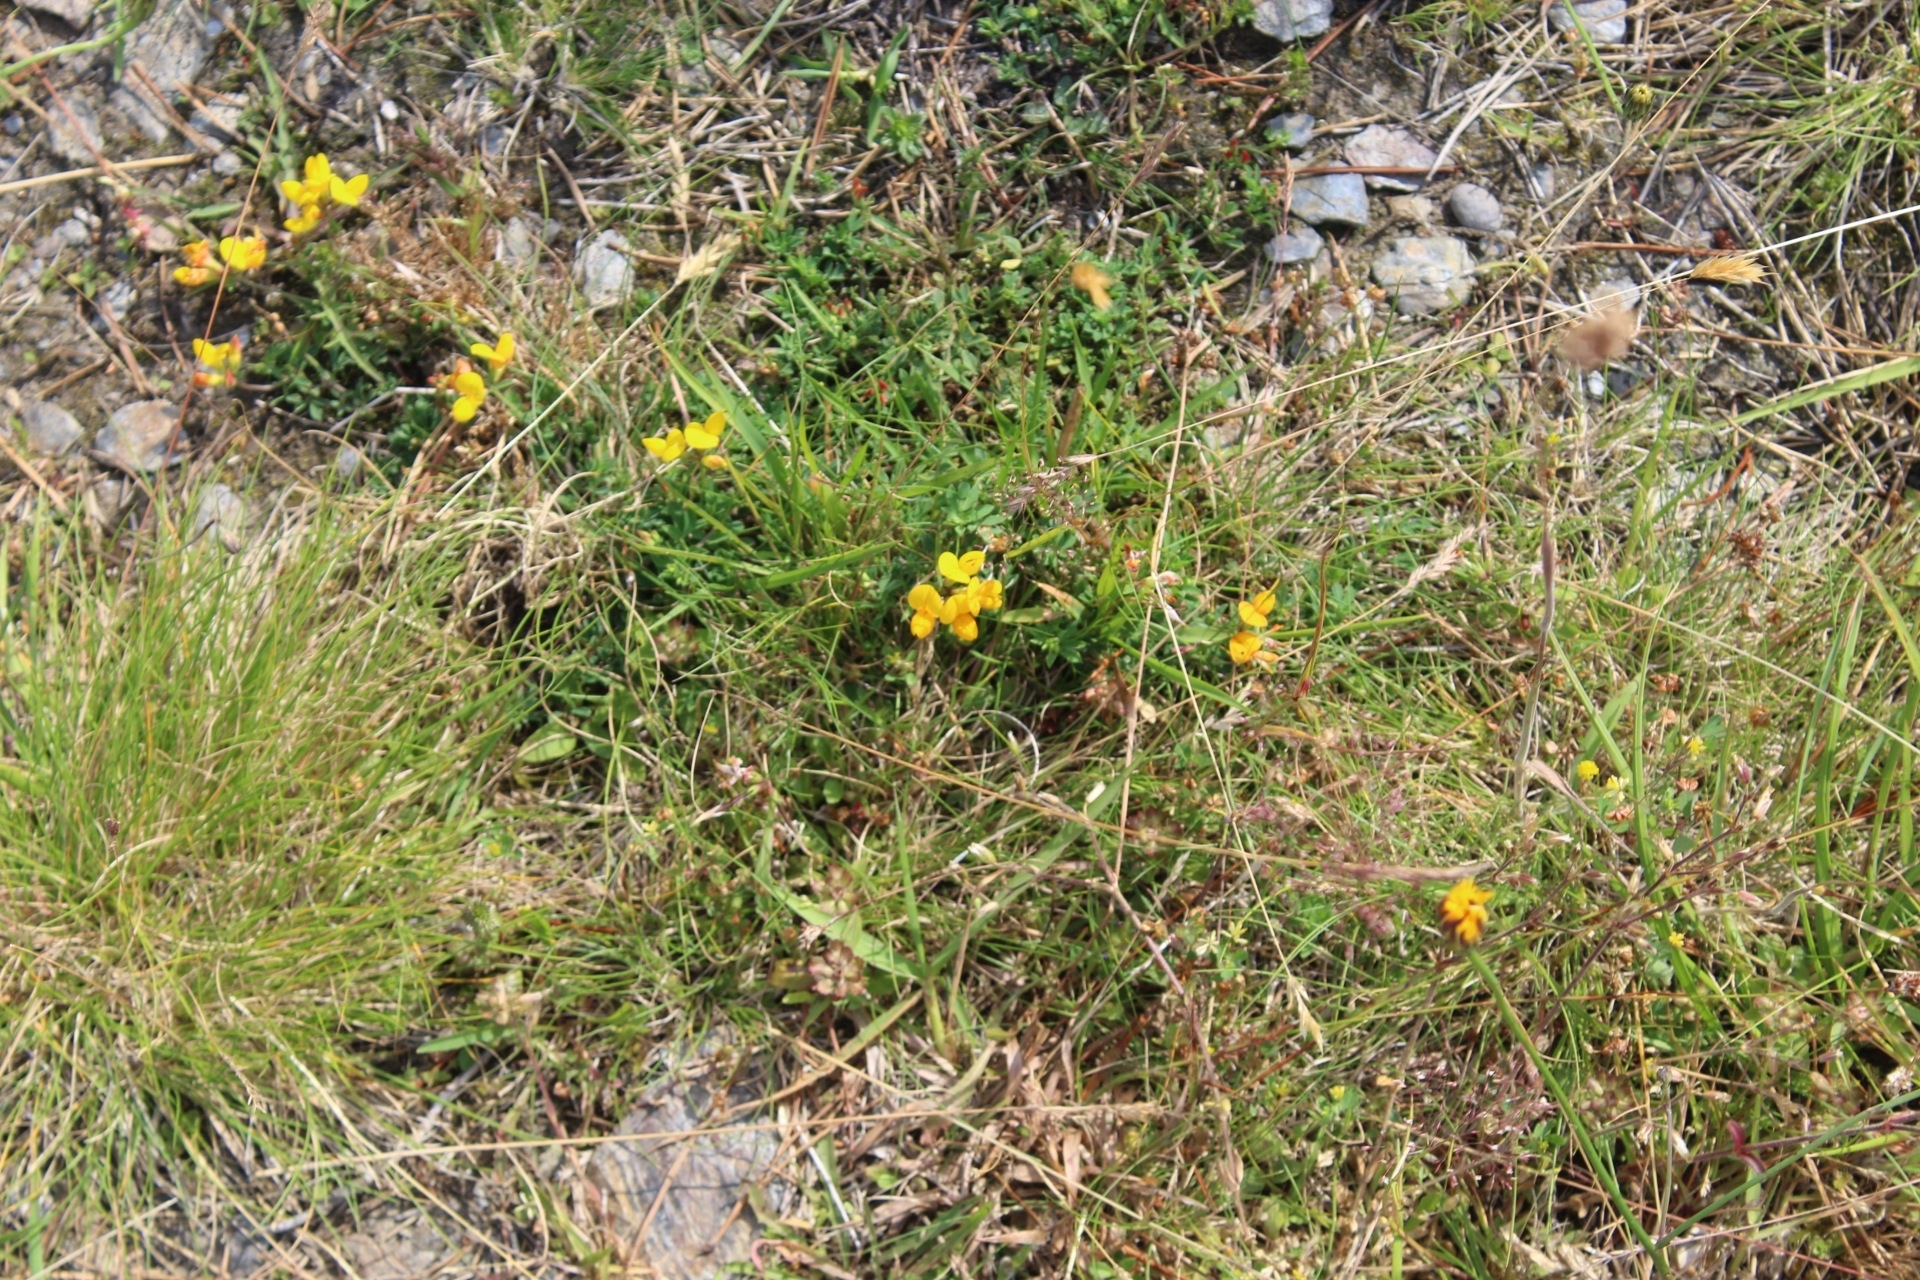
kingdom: Plantae
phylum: Tracheophyta
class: Magnoliopsida
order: Fabales
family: Fabaceae
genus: Lotus
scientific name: Lotus corniculatus
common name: Common bird's-foot-trefoil
